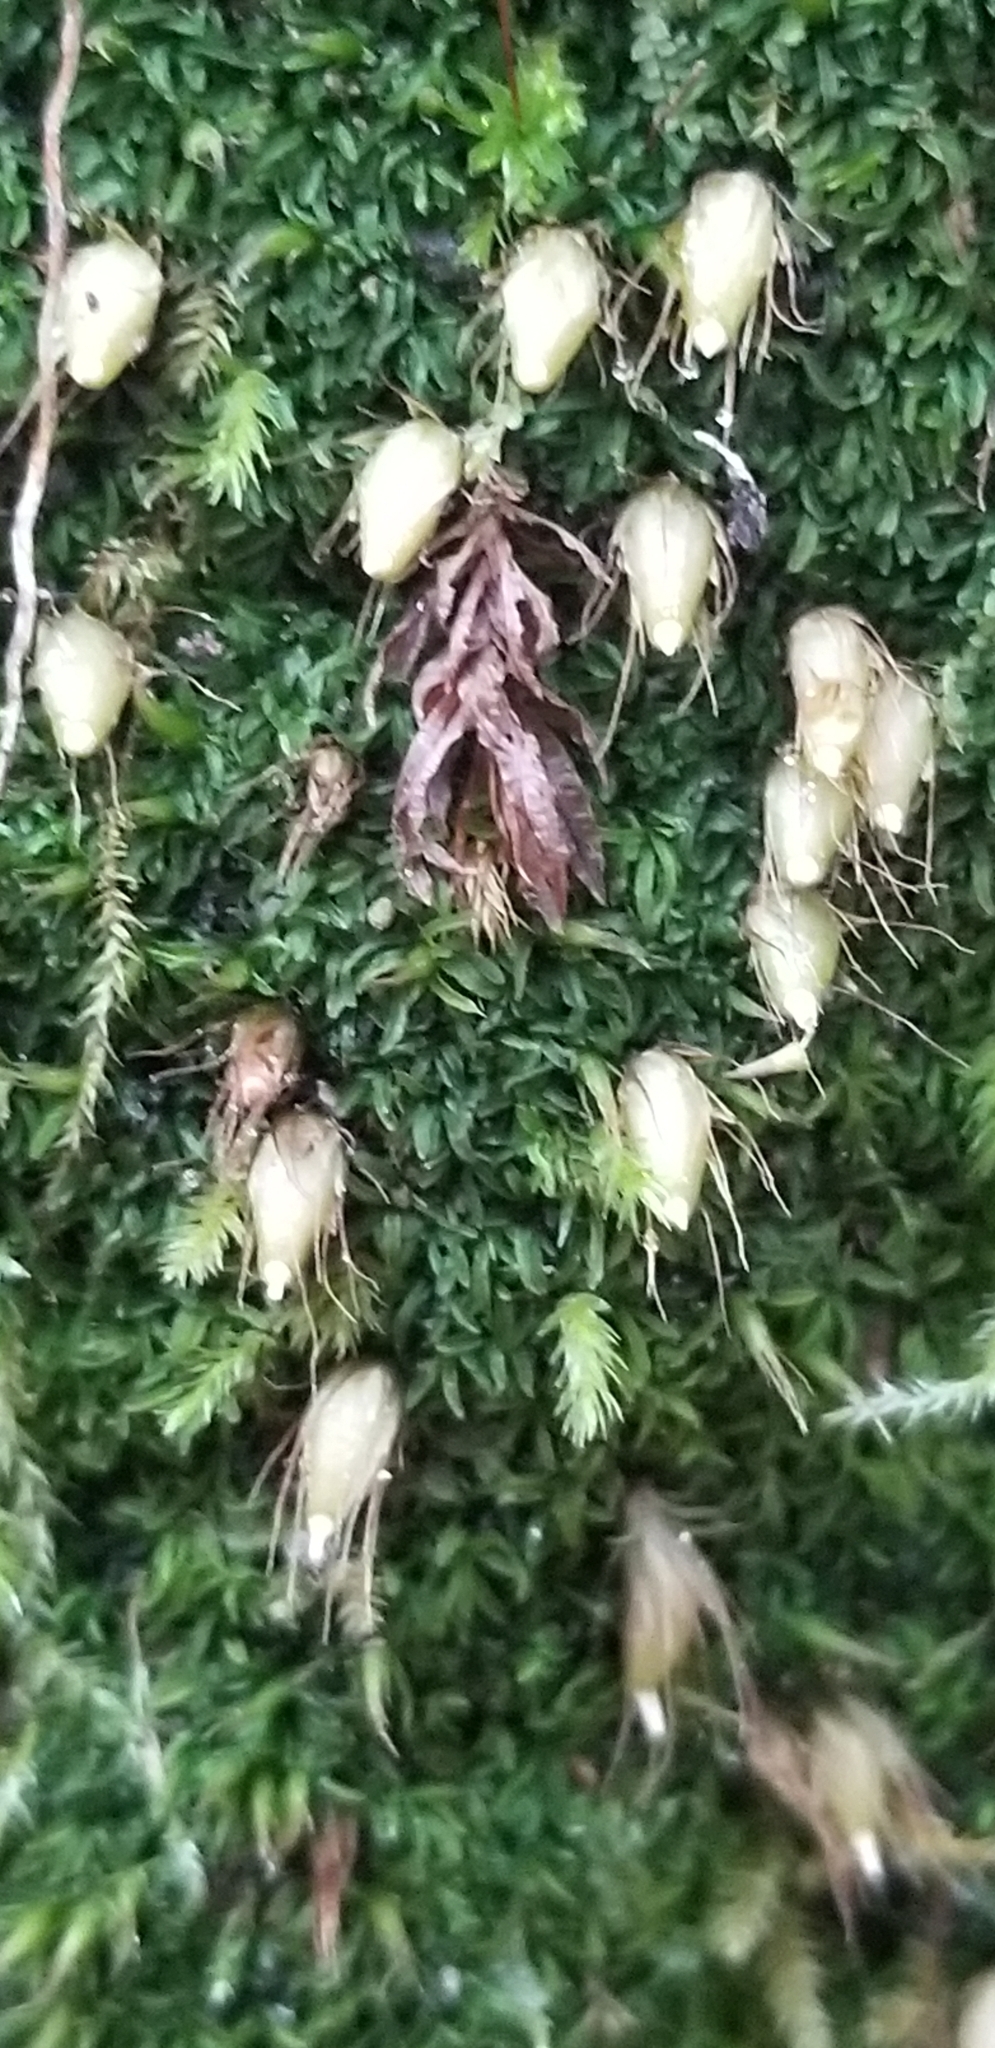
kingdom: Plantae
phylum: Bryophyta
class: Bryopsida
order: Diphysciales
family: Diphysciaceae
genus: Diphyscium
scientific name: Diphyscium foliosum
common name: Nut moss
